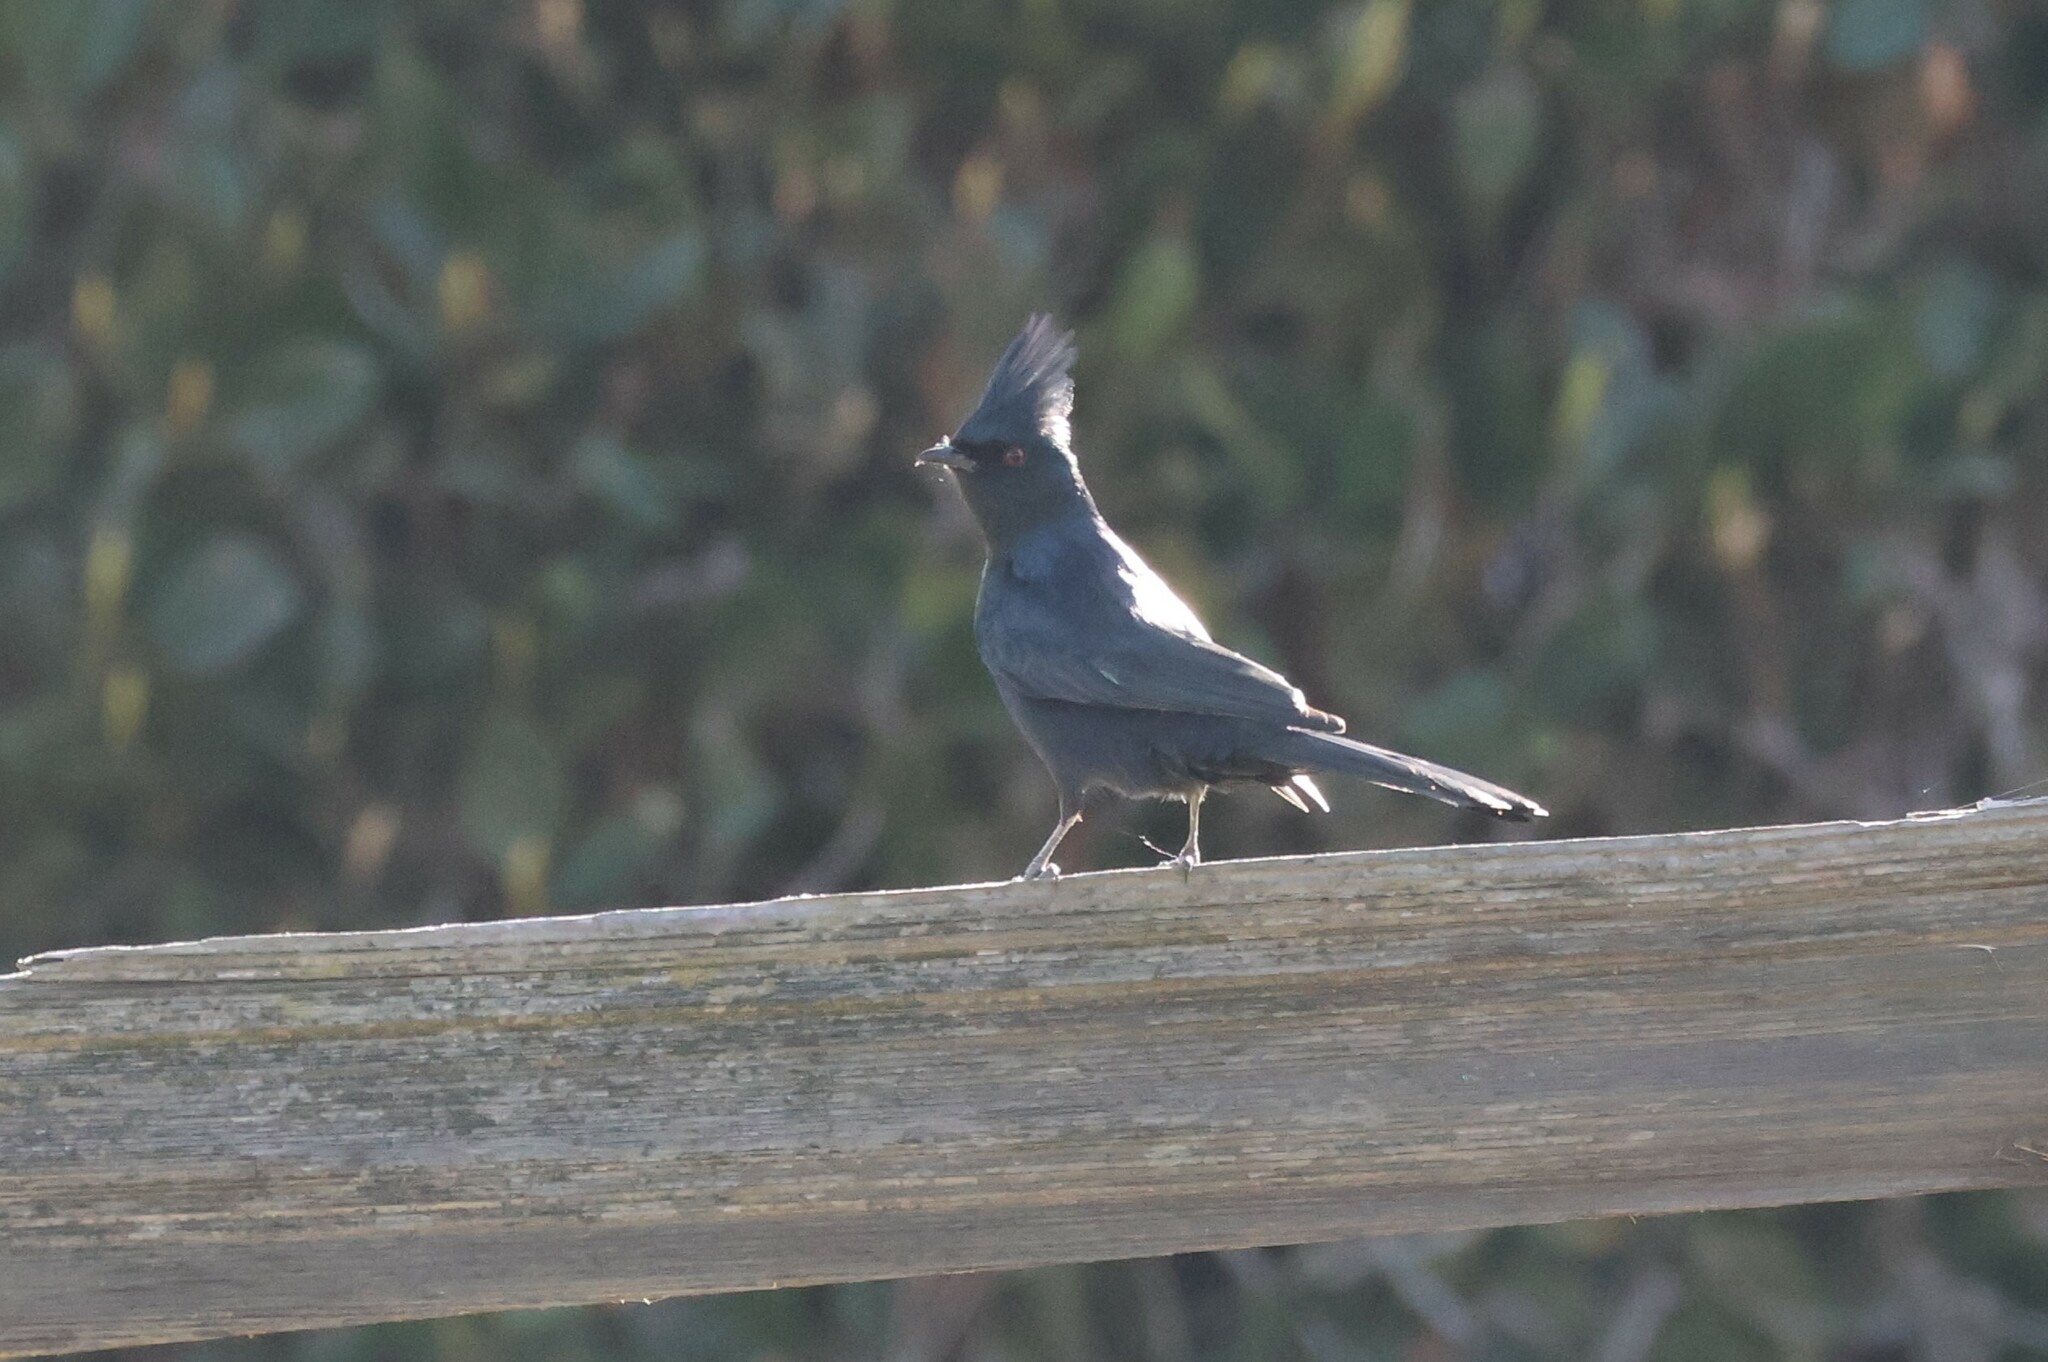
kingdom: Animalia
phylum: Chordata
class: Aves
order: Passeriformes
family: Ptilogonatidae
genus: Phainopepla
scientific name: Phainopepla nitens
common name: Phainopepla
